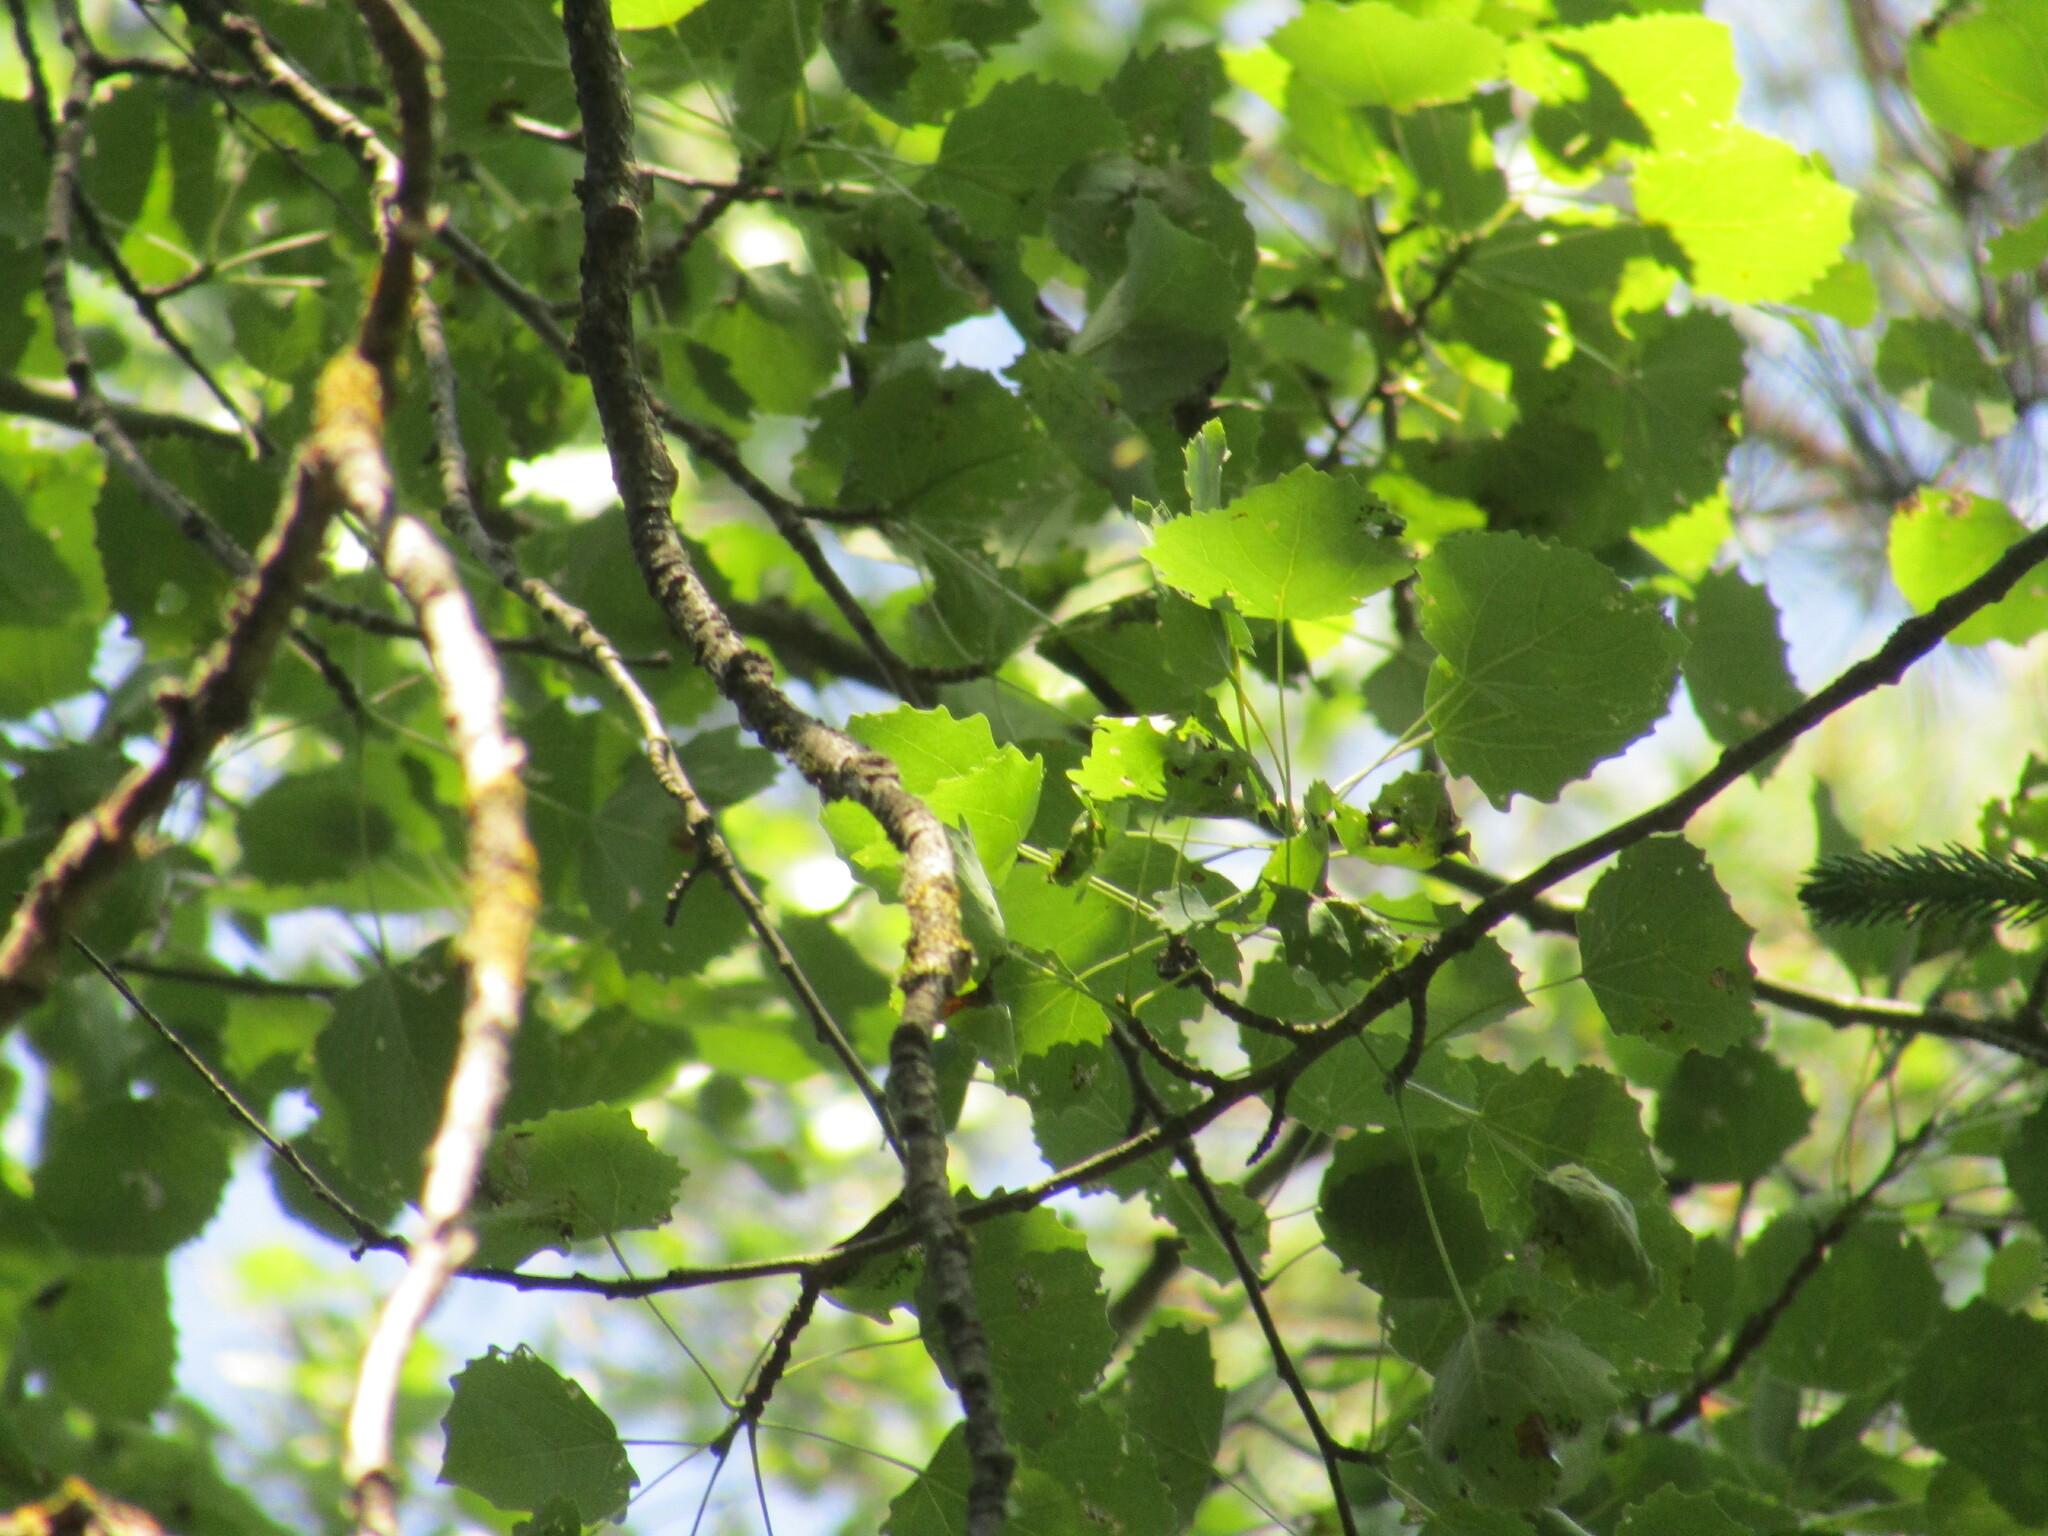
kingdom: Plantae
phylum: Tracheophyta
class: Magnoliopsida
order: Malpighiales
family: Salicaceae
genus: Populus
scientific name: Populus tremula
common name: European aspen
